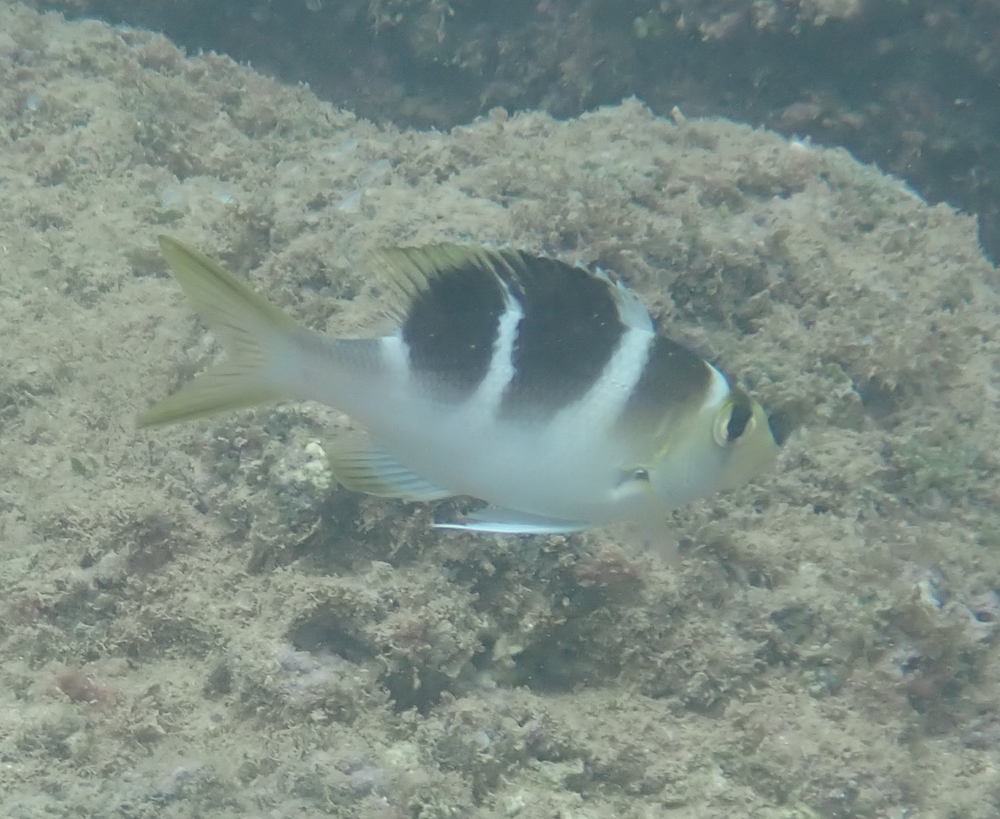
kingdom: Animalia
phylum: Chordata
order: Perciformes
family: Lethrinidae
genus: Monotaxis
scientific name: Monotaxis grandoculis
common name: Bigeye emperor
